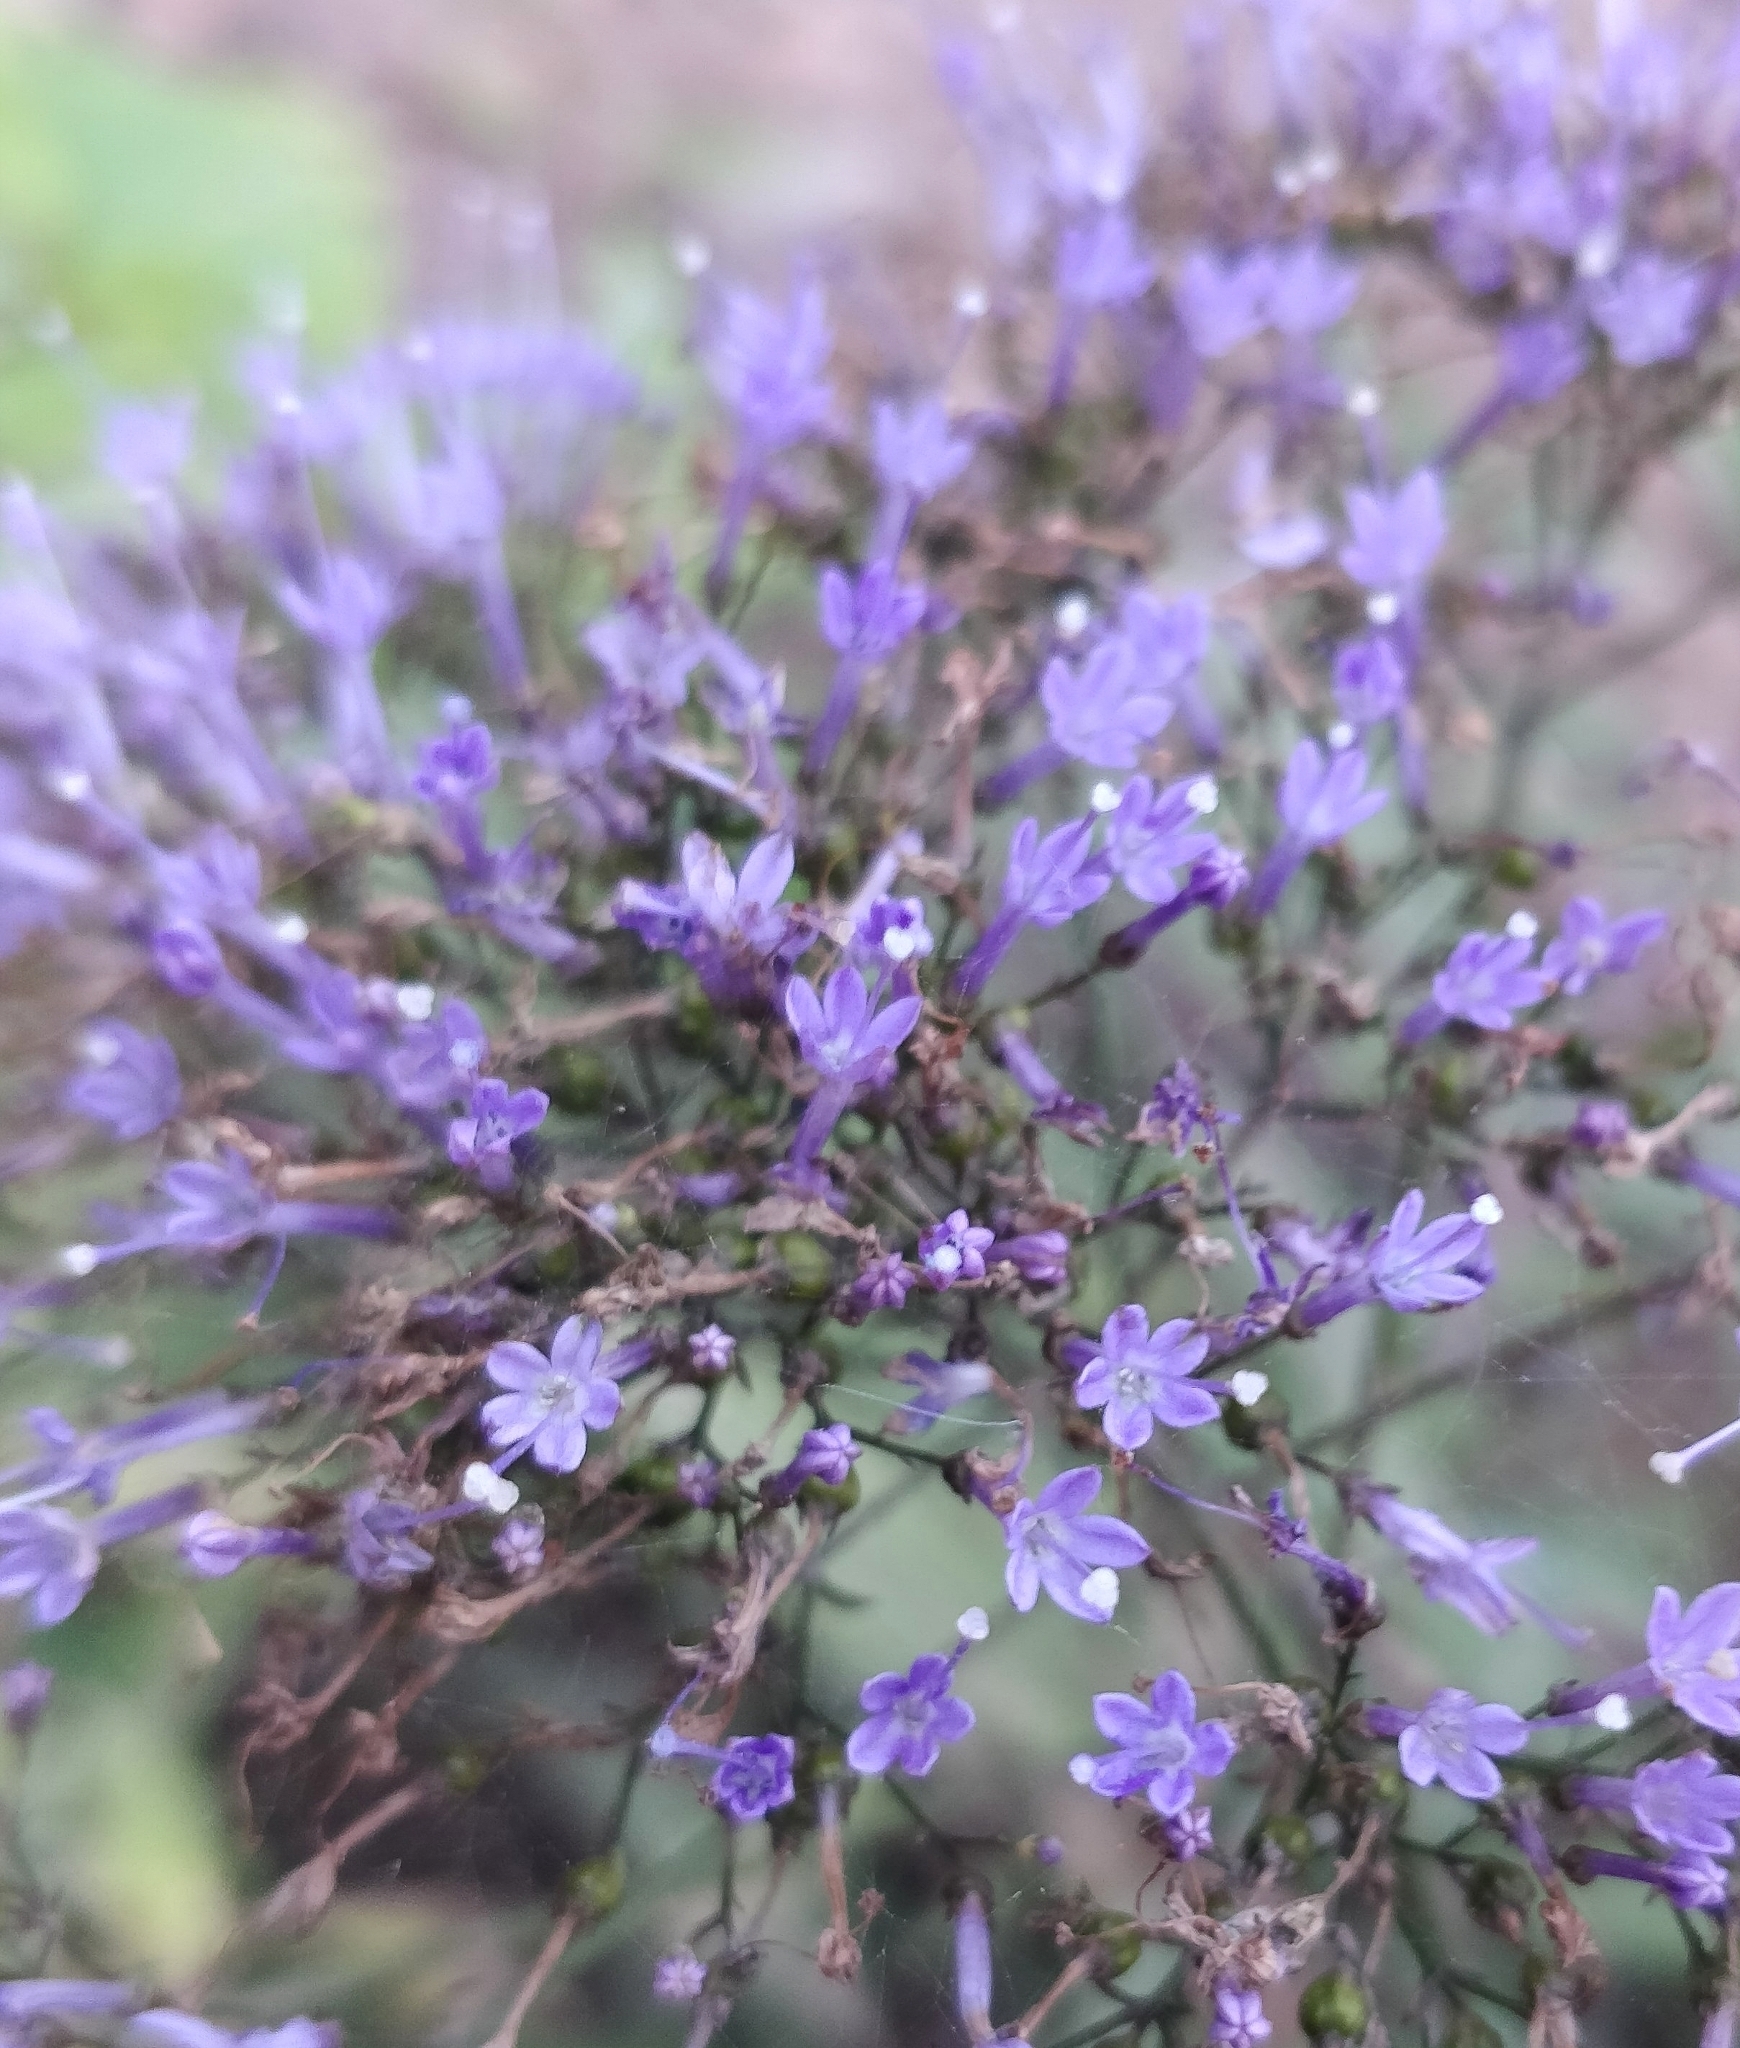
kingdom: Plantae
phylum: Tracheophyta
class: Magnoliopsida
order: Asterales
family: Campanulaceae
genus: Trachelium
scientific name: Trachelium caeruleum
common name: Throatwort
